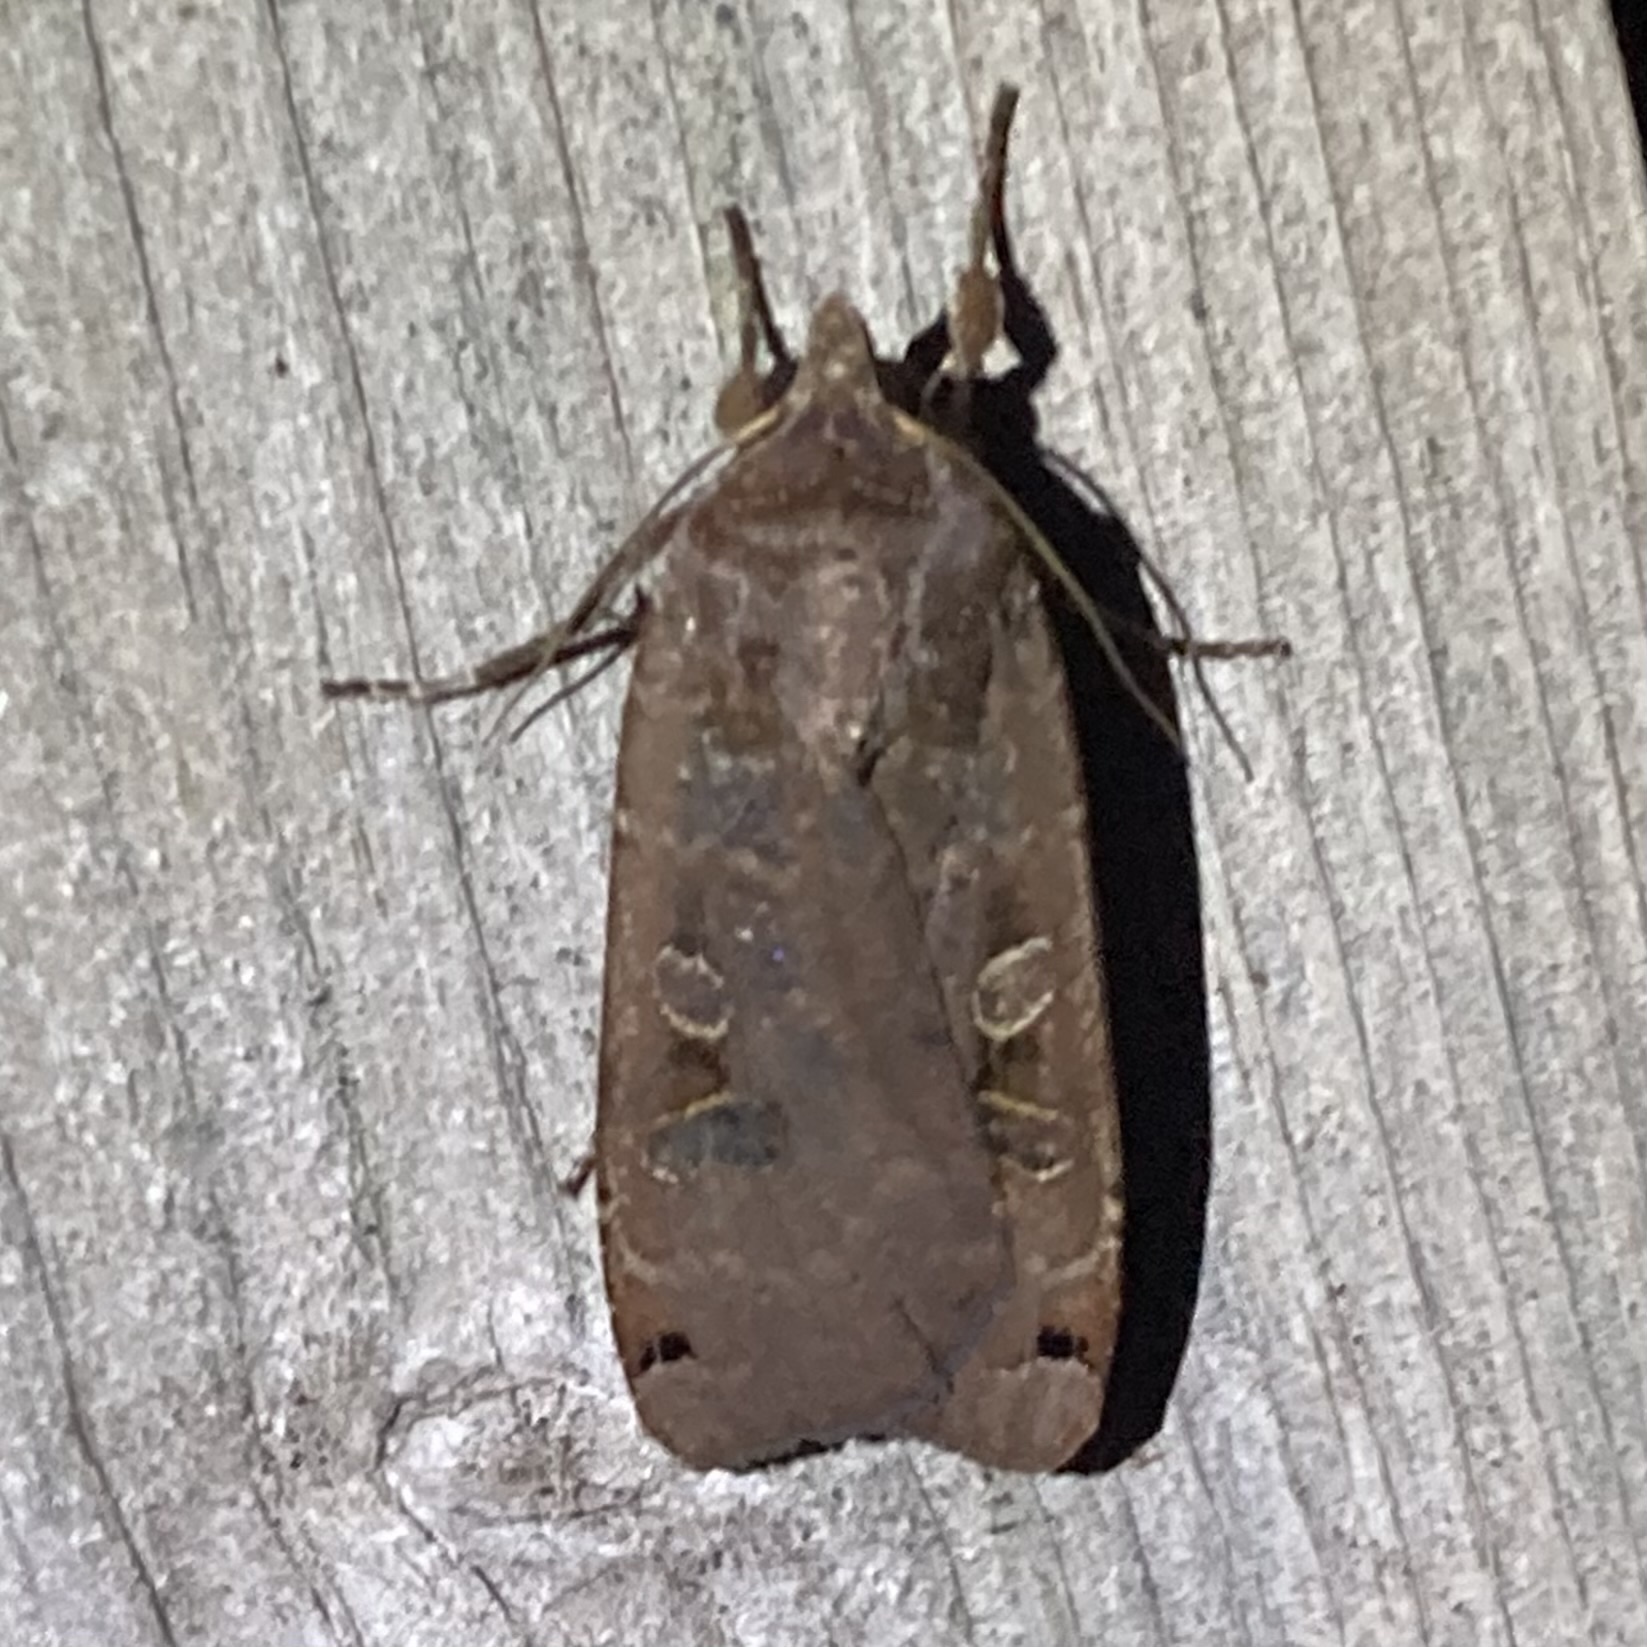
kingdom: Animalia
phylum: Arthropoda
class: Insecta
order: Lepidoptera
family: Noctuidae
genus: Noctua
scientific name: Noctua pronuba
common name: Large yellow underwing
